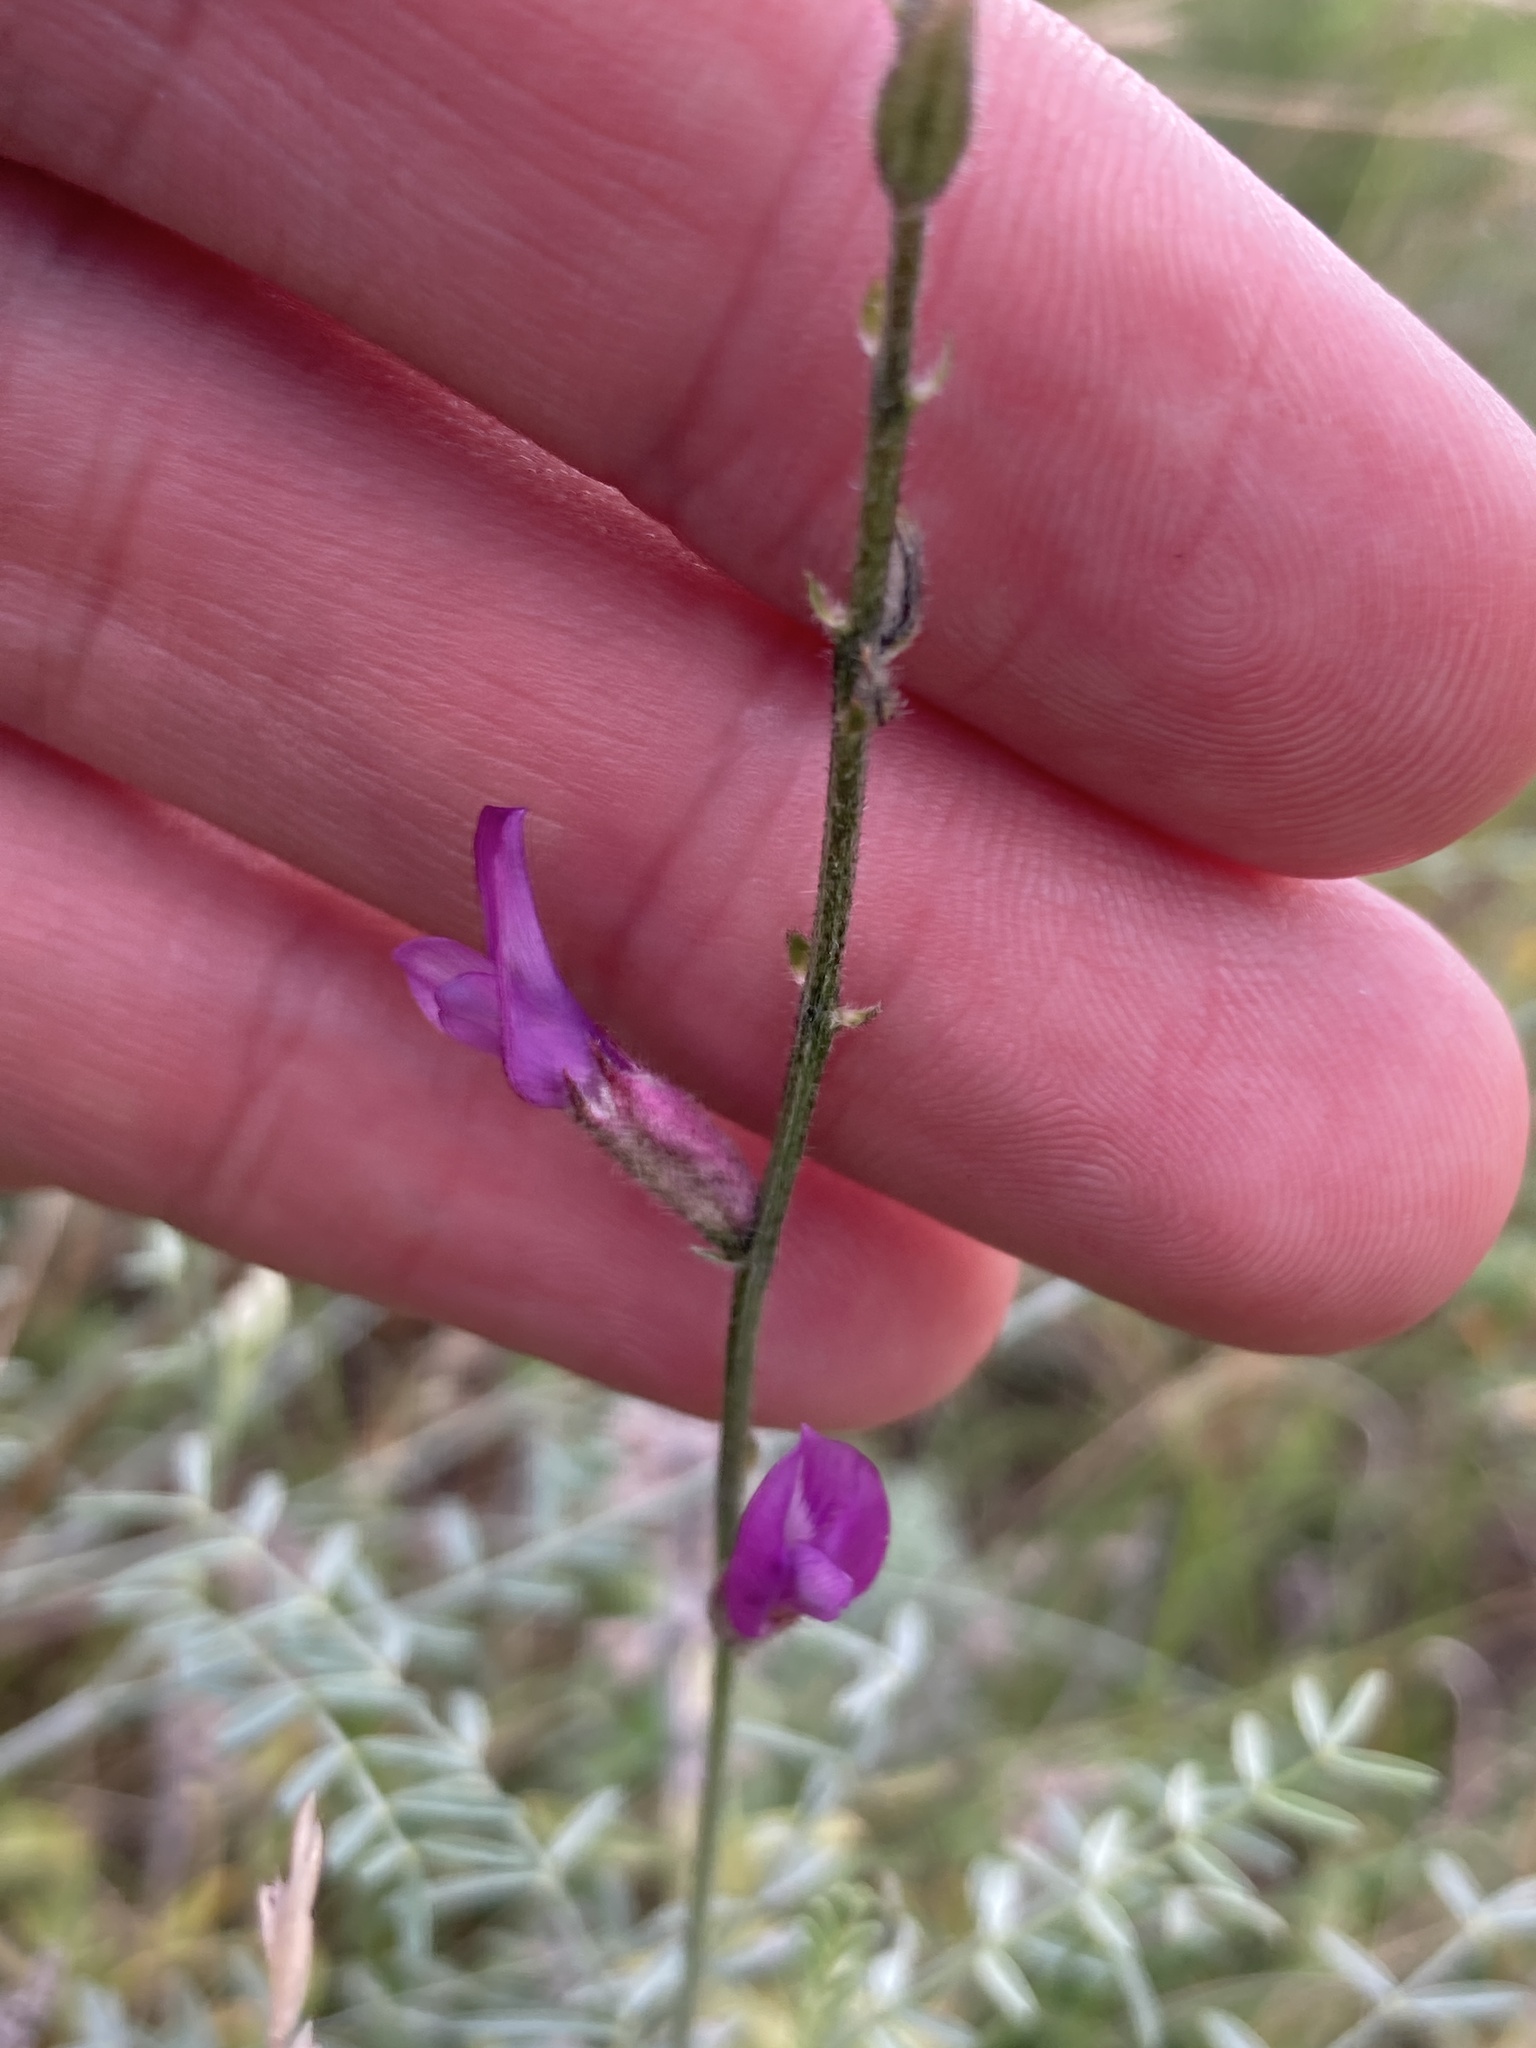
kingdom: Plantae
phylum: Tracheophyta
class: Magnoliopsida
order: Fabales
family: Fabaceae
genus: Astragalus
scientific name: Astragalus varius
